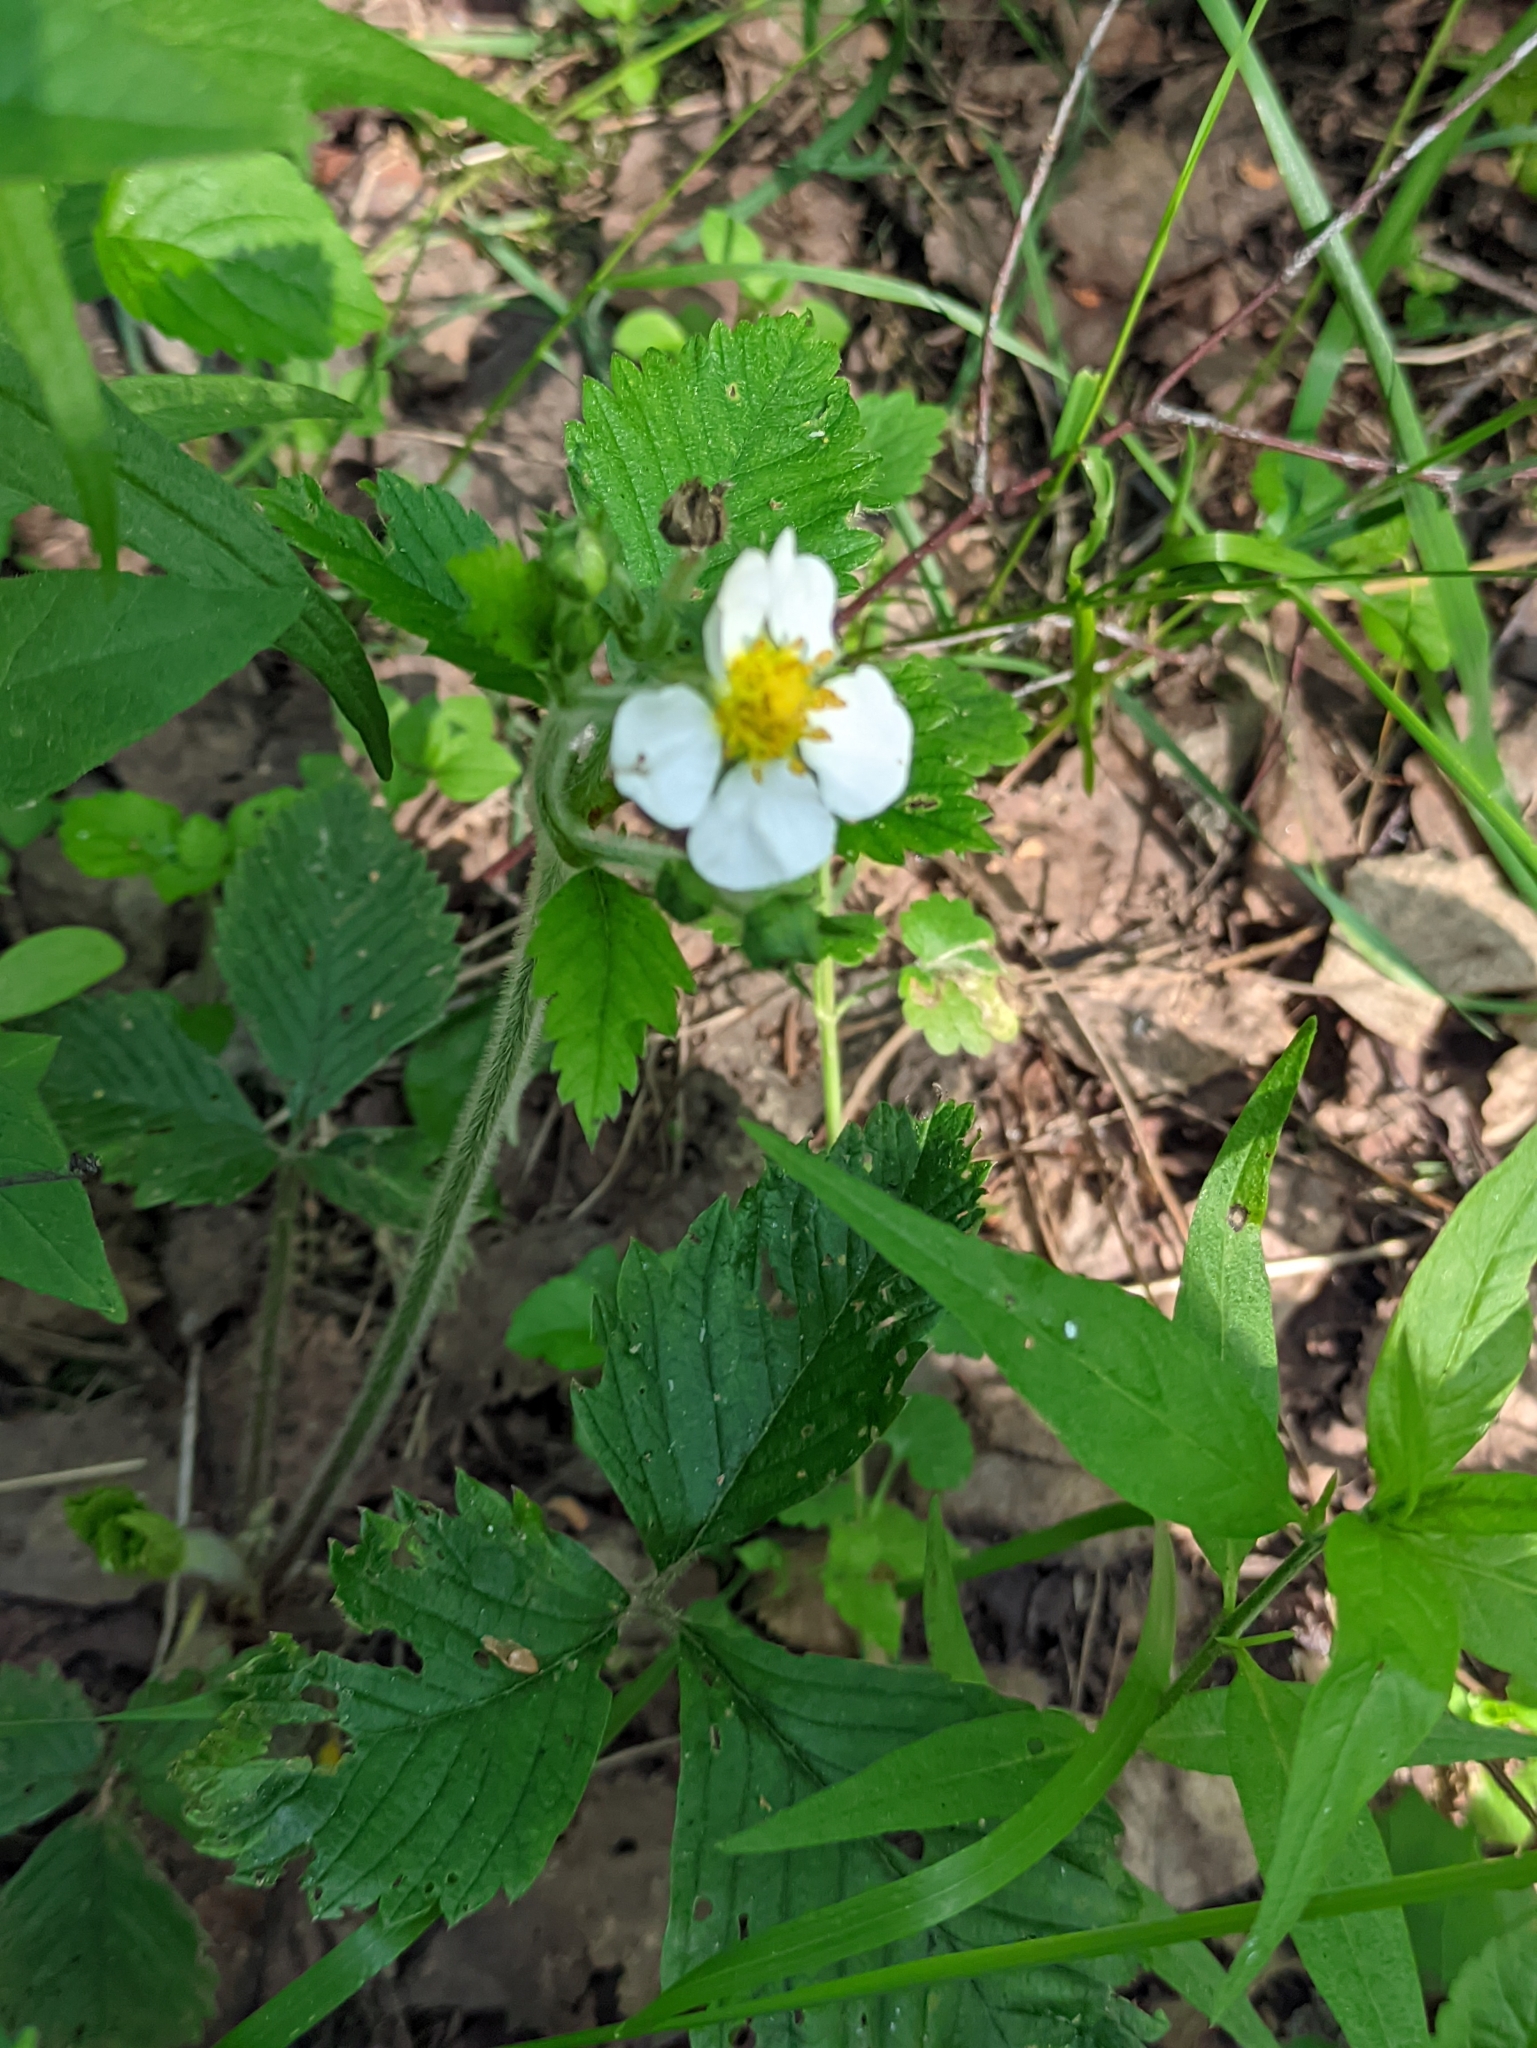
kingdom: Plantae
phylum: Tracheophyta
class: Magnoliopsida
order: Rosales
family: Rosaceae
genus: Fragaria
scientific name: Fragaria moschata
